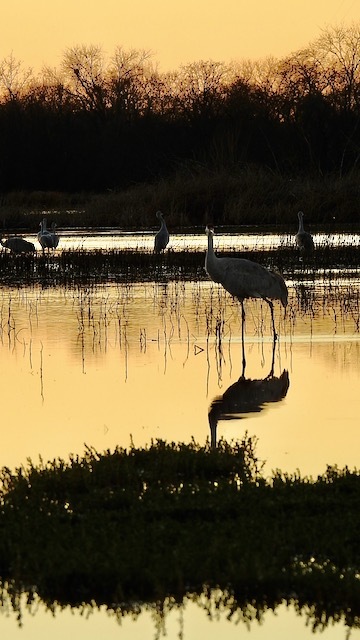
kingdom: Animalia
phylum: Chordata
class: Aves
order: Gruiformes
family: Gruidae
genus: Grus
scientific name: Grus canadensis
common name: Sandhill crane
